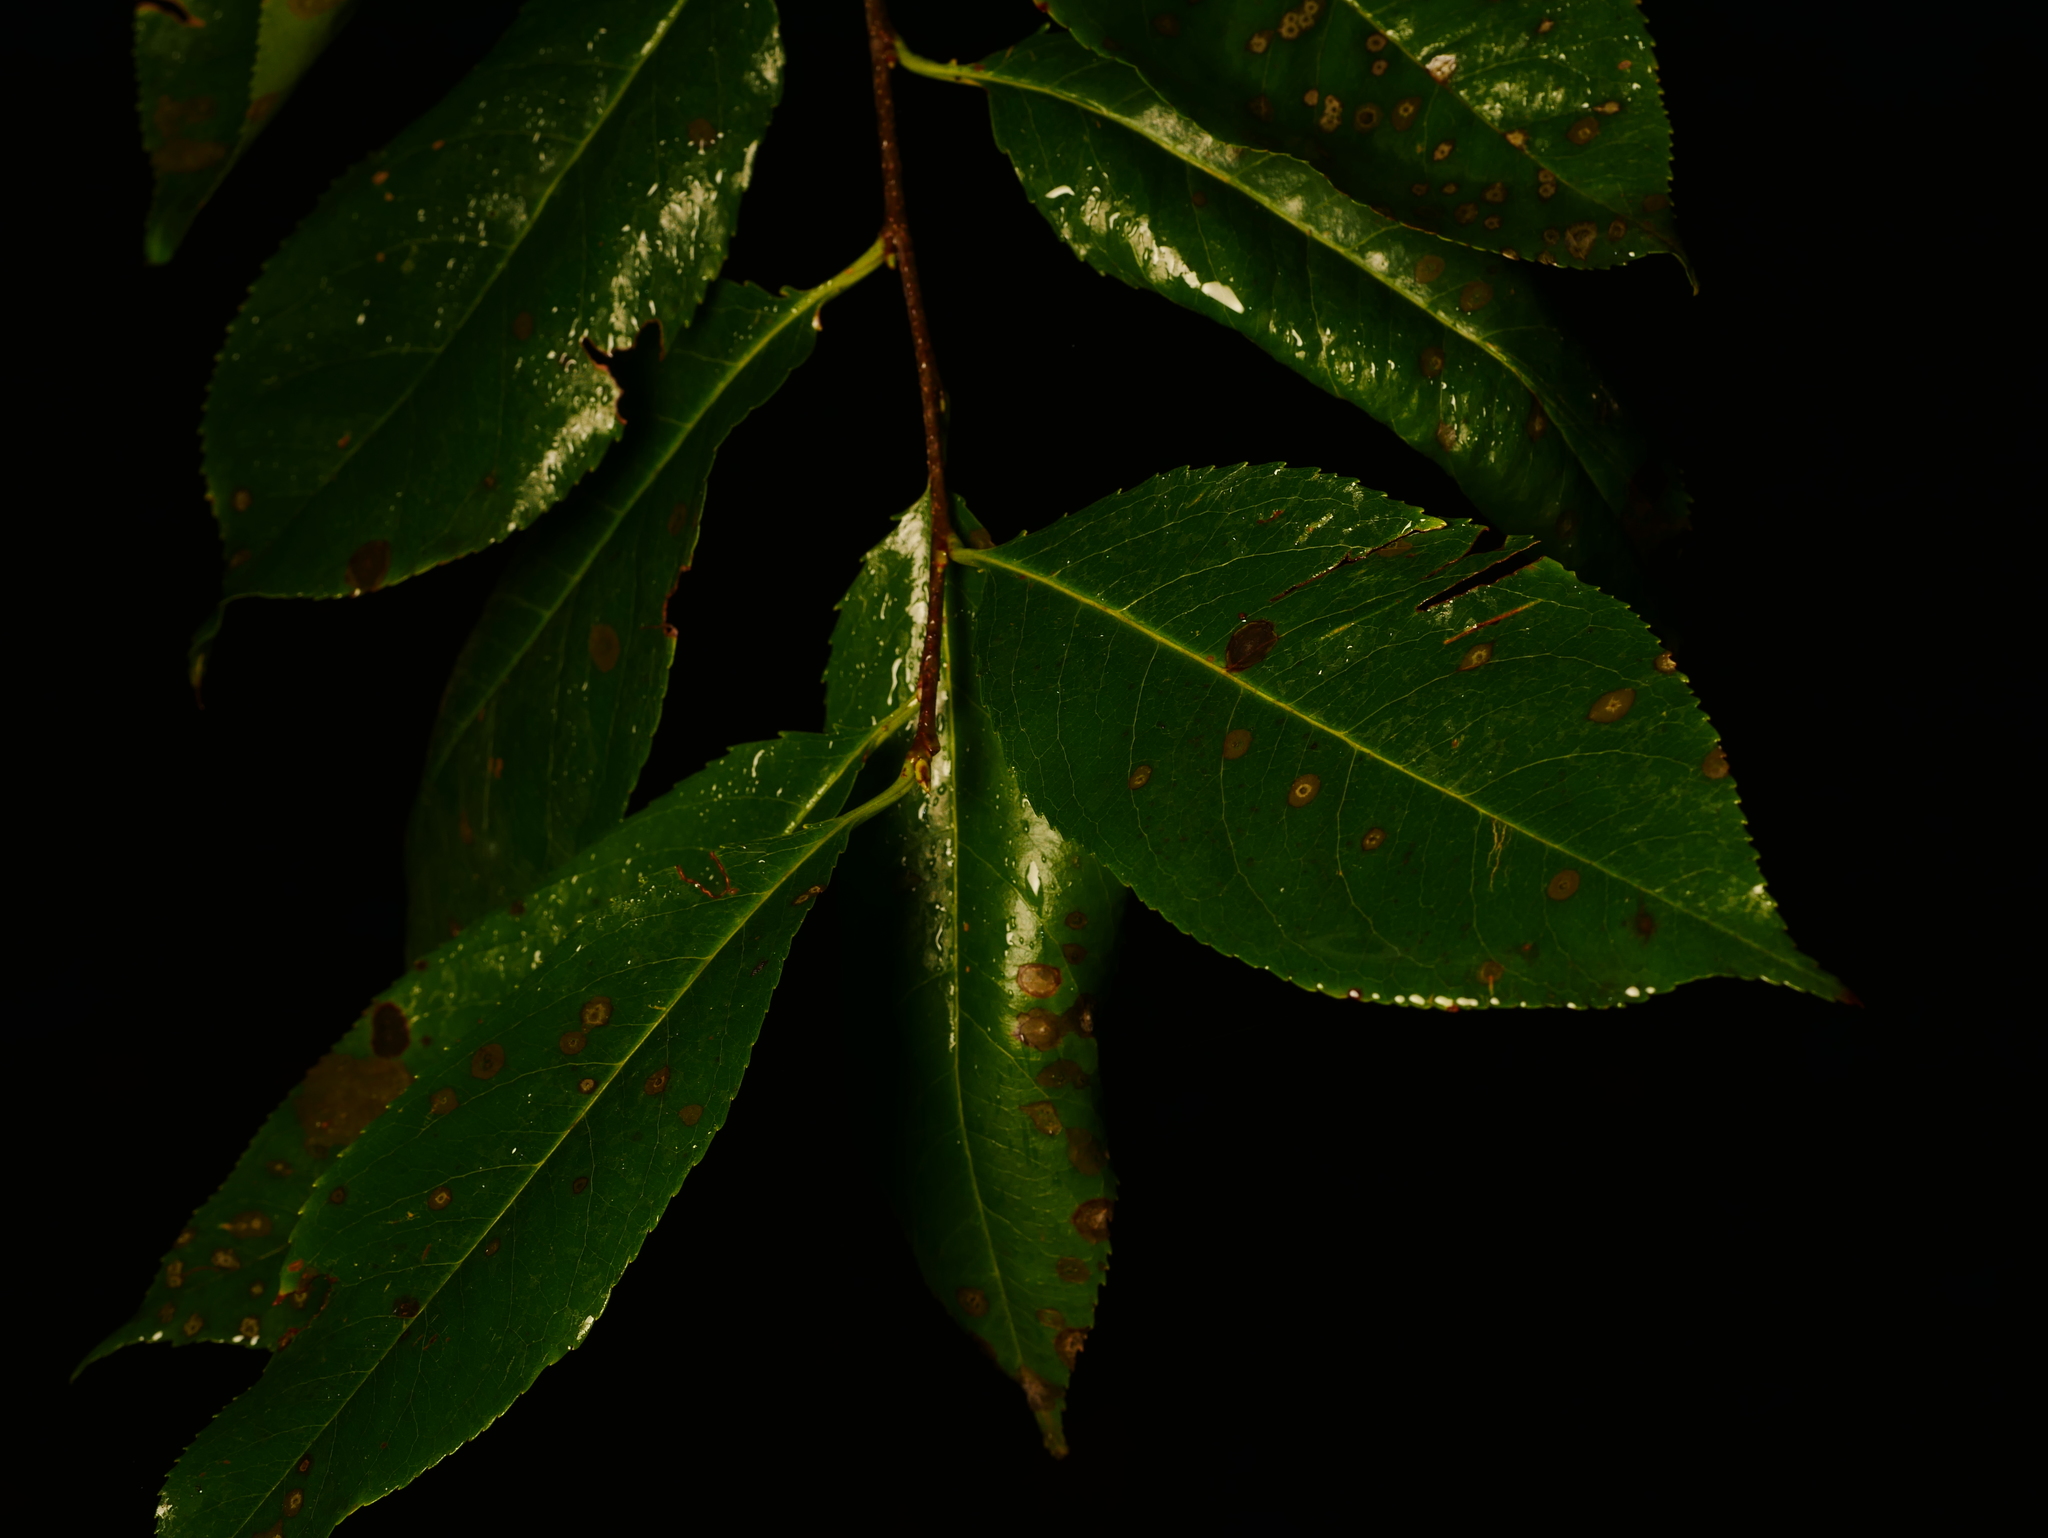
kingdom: Plantae
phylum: Tracheophyta
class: Magnoliopsida
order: Rosales
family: Rosaceae
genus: Prunus
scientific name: Prunus serotina
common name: Black cherry
